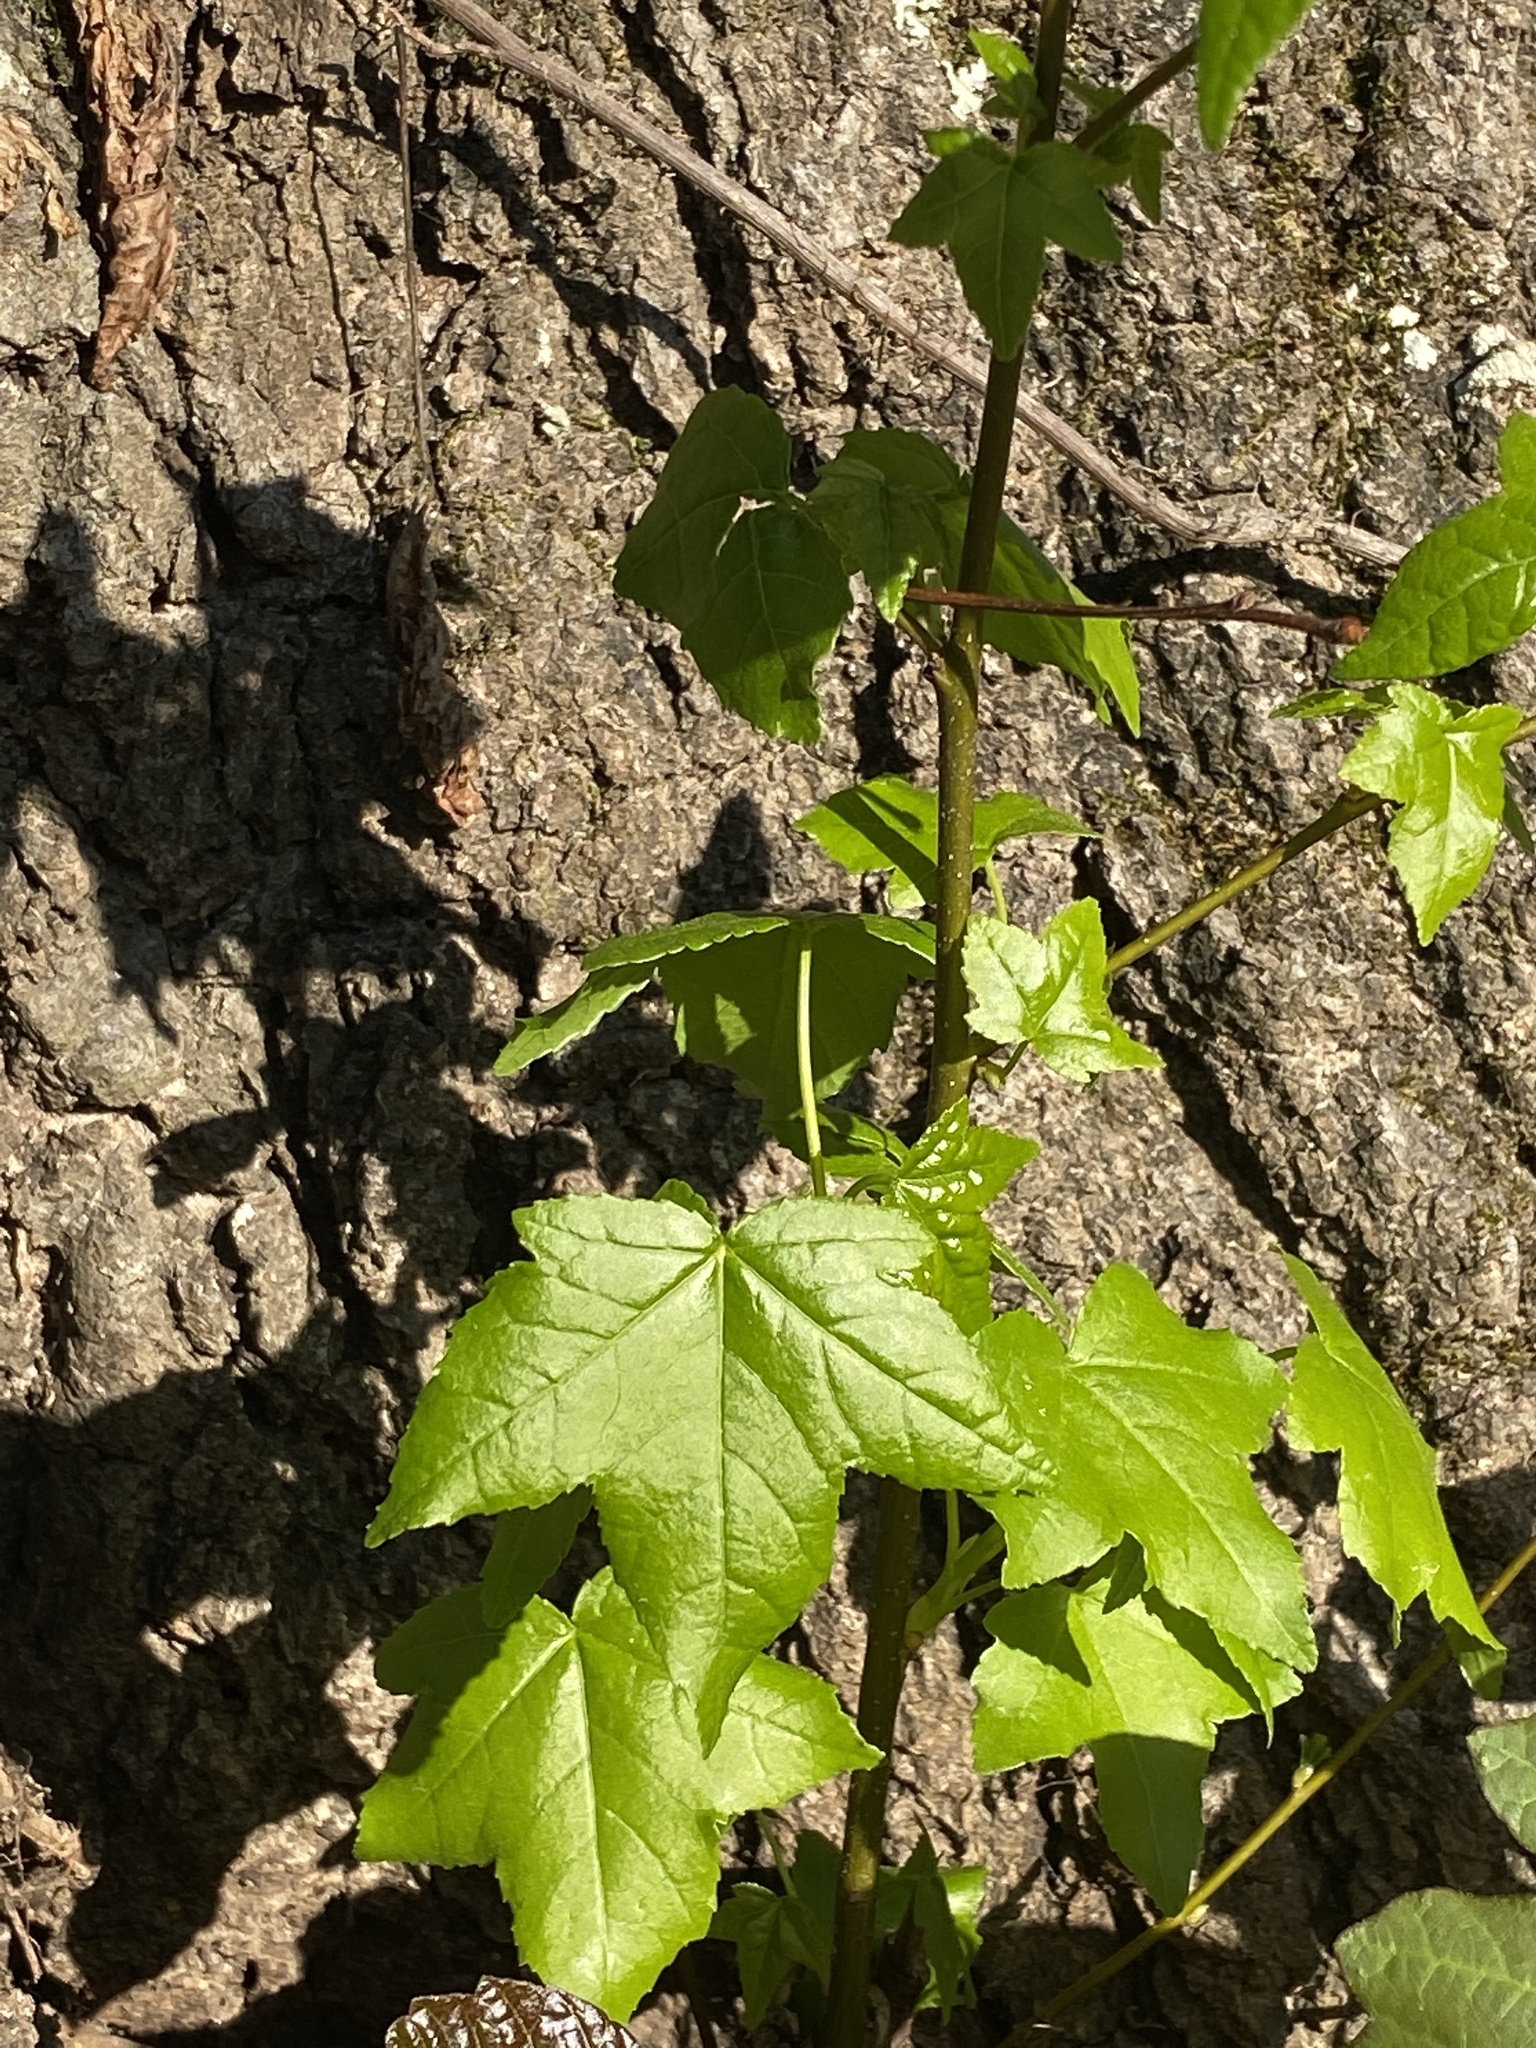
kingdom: Plantae
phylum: Tracheophyta
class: Magnoliopsida
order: Saxifragales
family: Altingiaceae
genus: Liquidambar
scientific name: Liquidambar styraciflua
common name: Sweet gum
